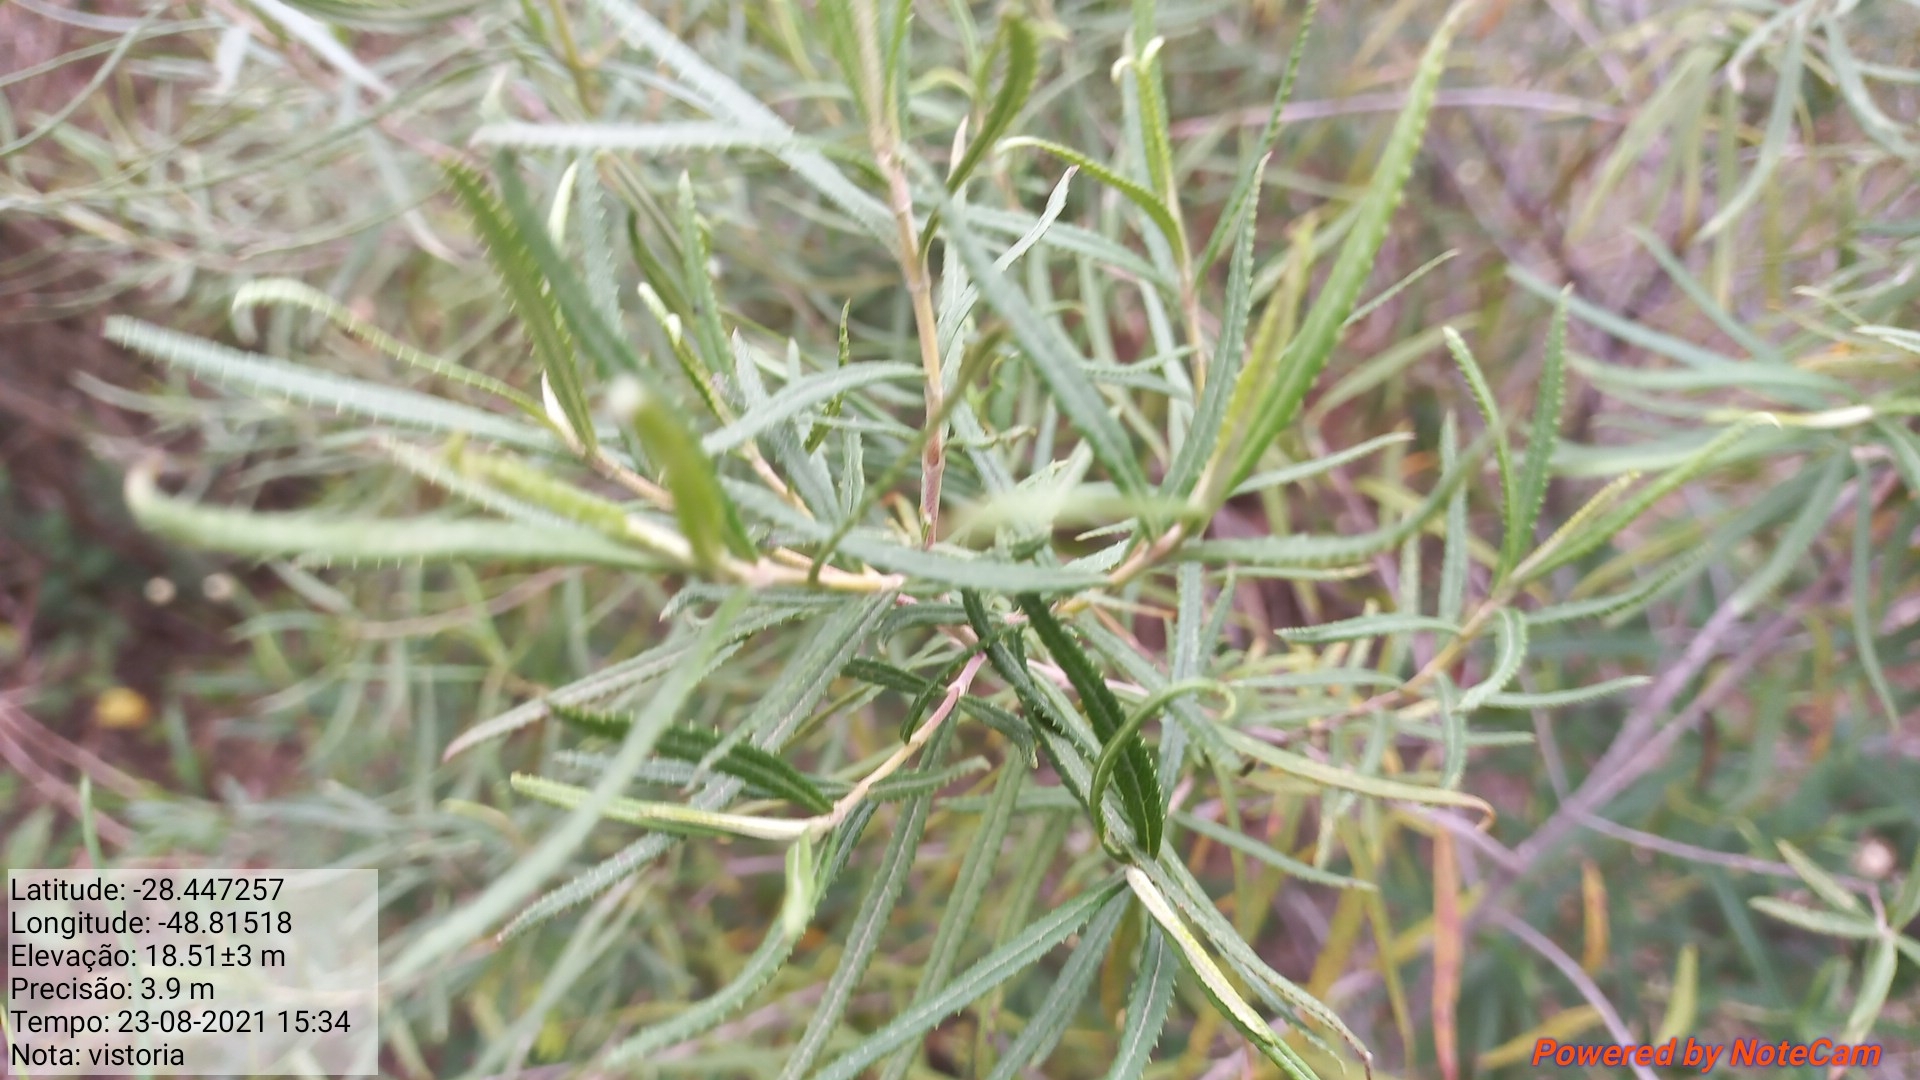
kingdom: Plantae
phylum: Tracheophyta
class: Magnoliopsida
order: Asterales
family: Asteraceae
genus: Grazielia
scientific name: Grazielia serrata
